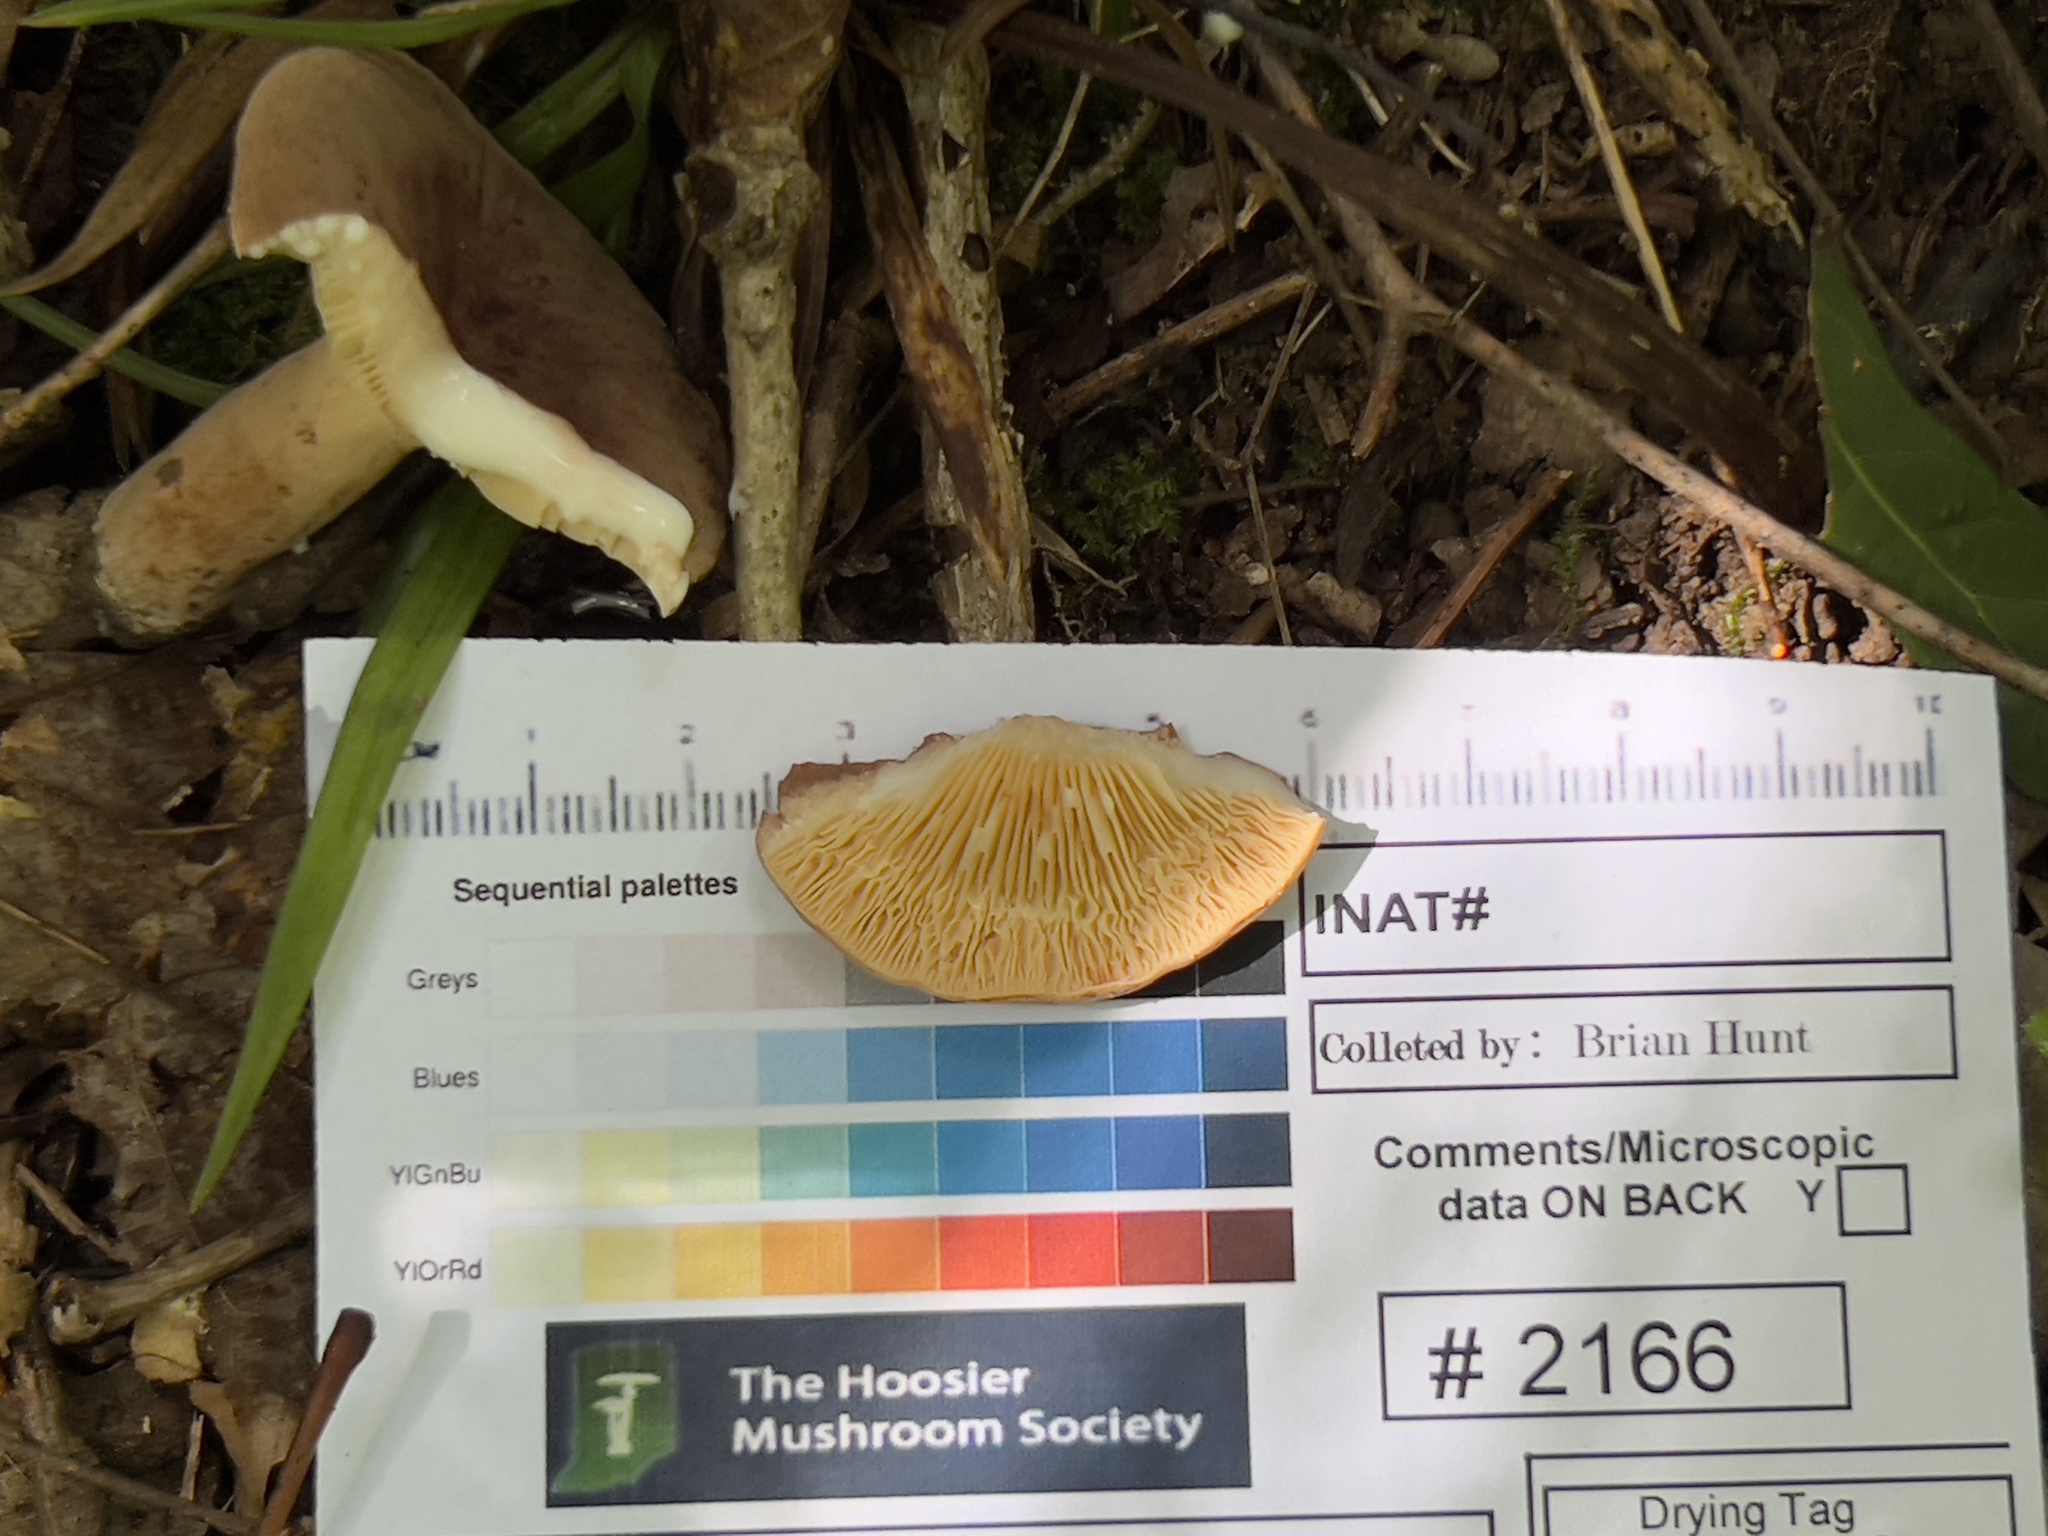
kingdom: Fungi
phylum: Basidiomycota
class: Agaricomycetes
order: Russulales
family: Russulaceae
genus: Lactarius
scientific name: Lactarius corrugis
